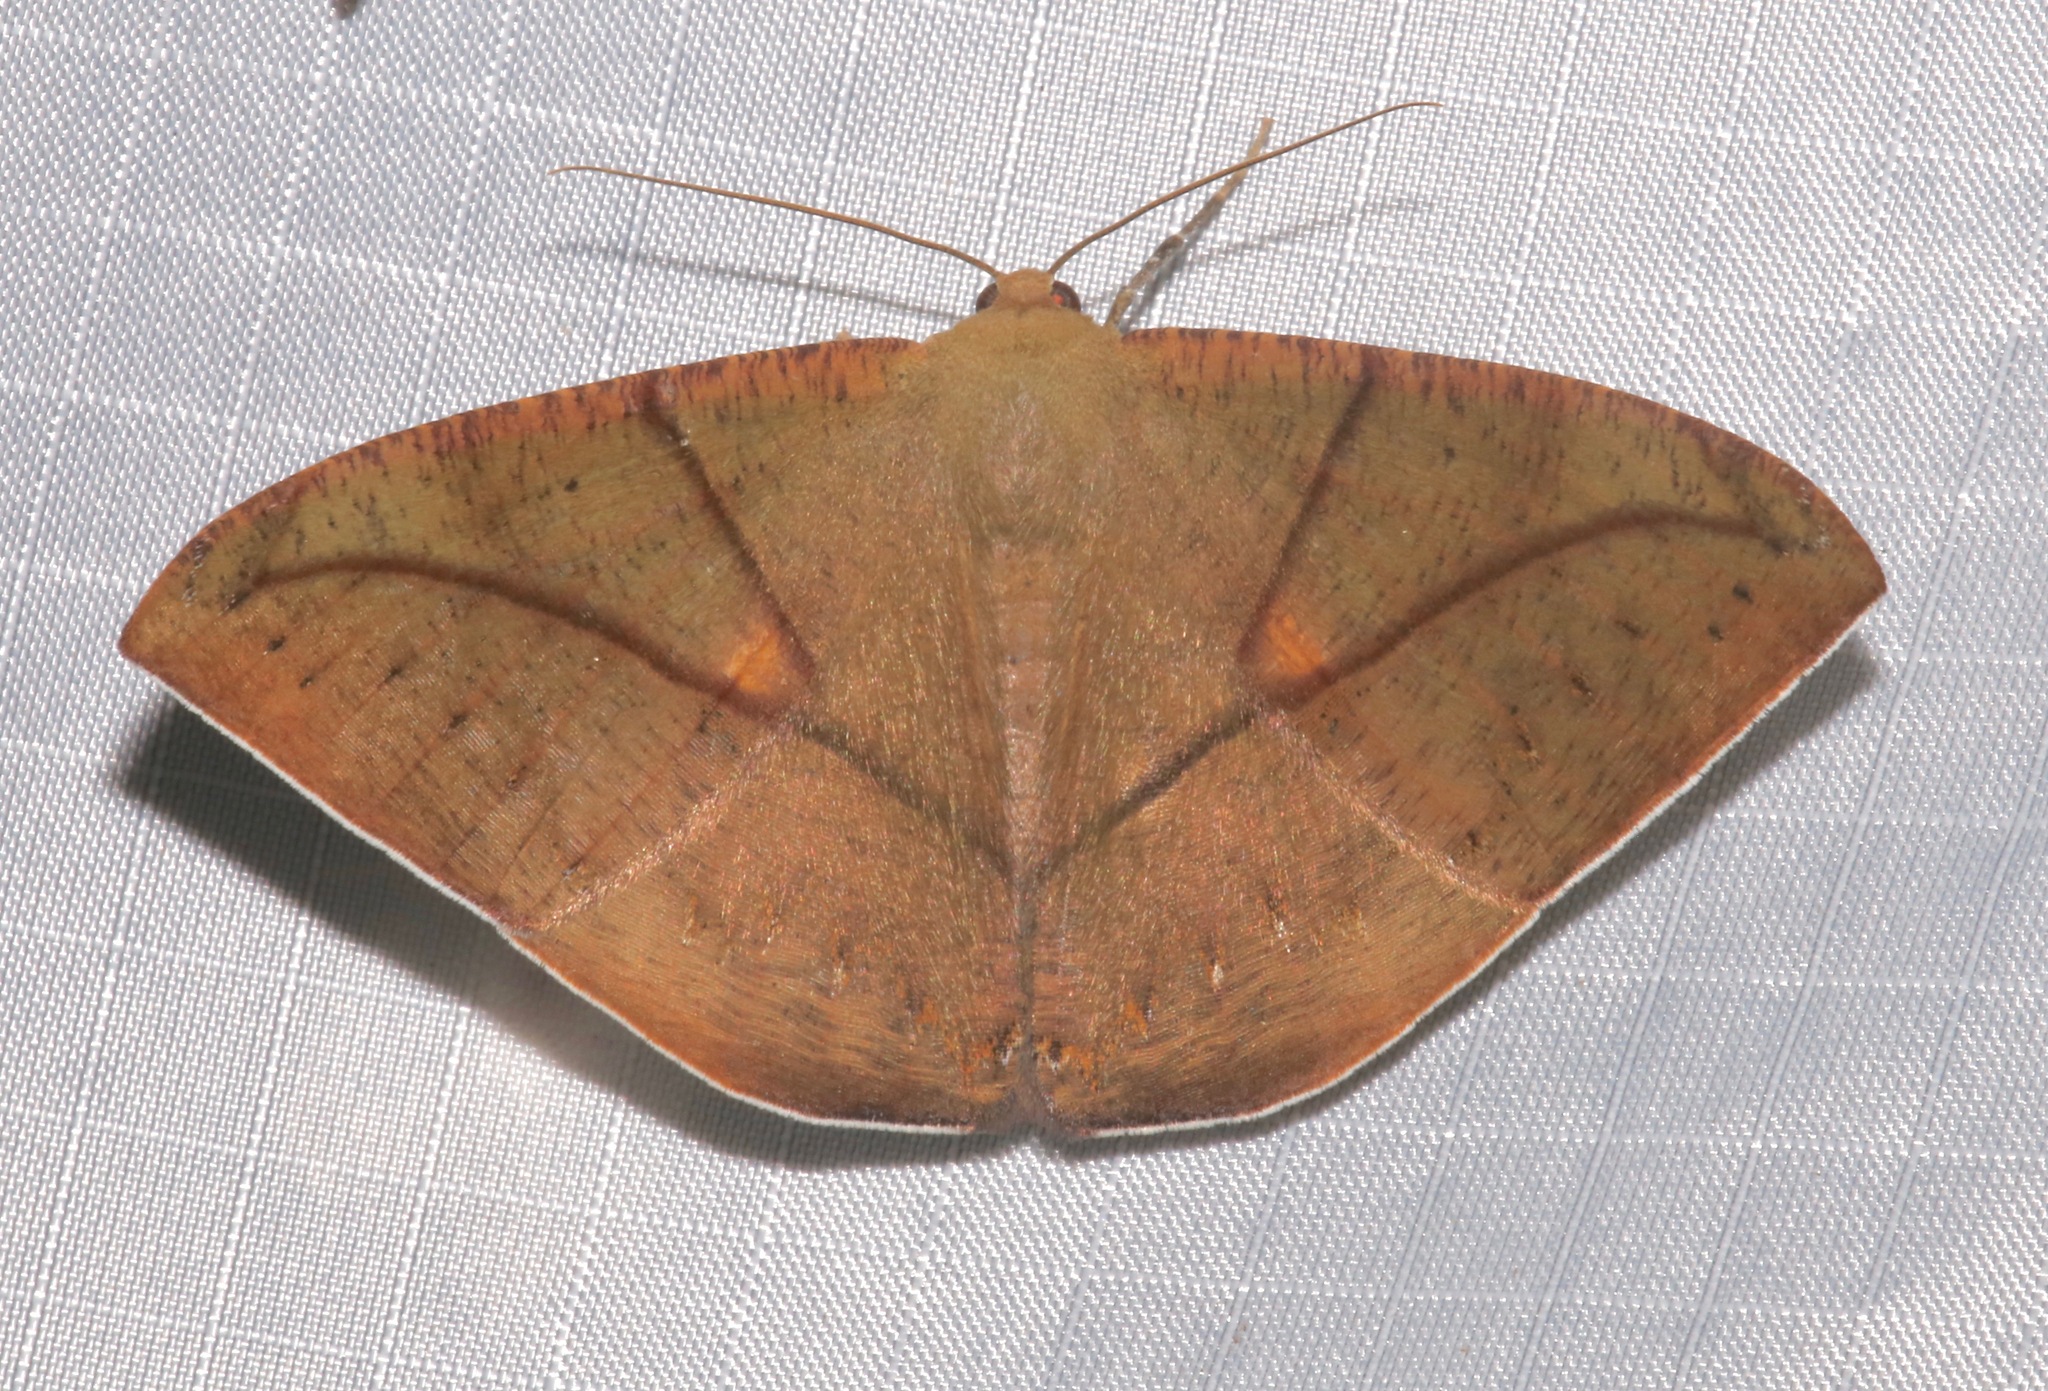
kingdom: Animalia
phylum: Arthropoda
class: Insecta
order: Lepidoptera
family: Geometridae
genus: Oxydia
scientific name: Oxydia trychiata
